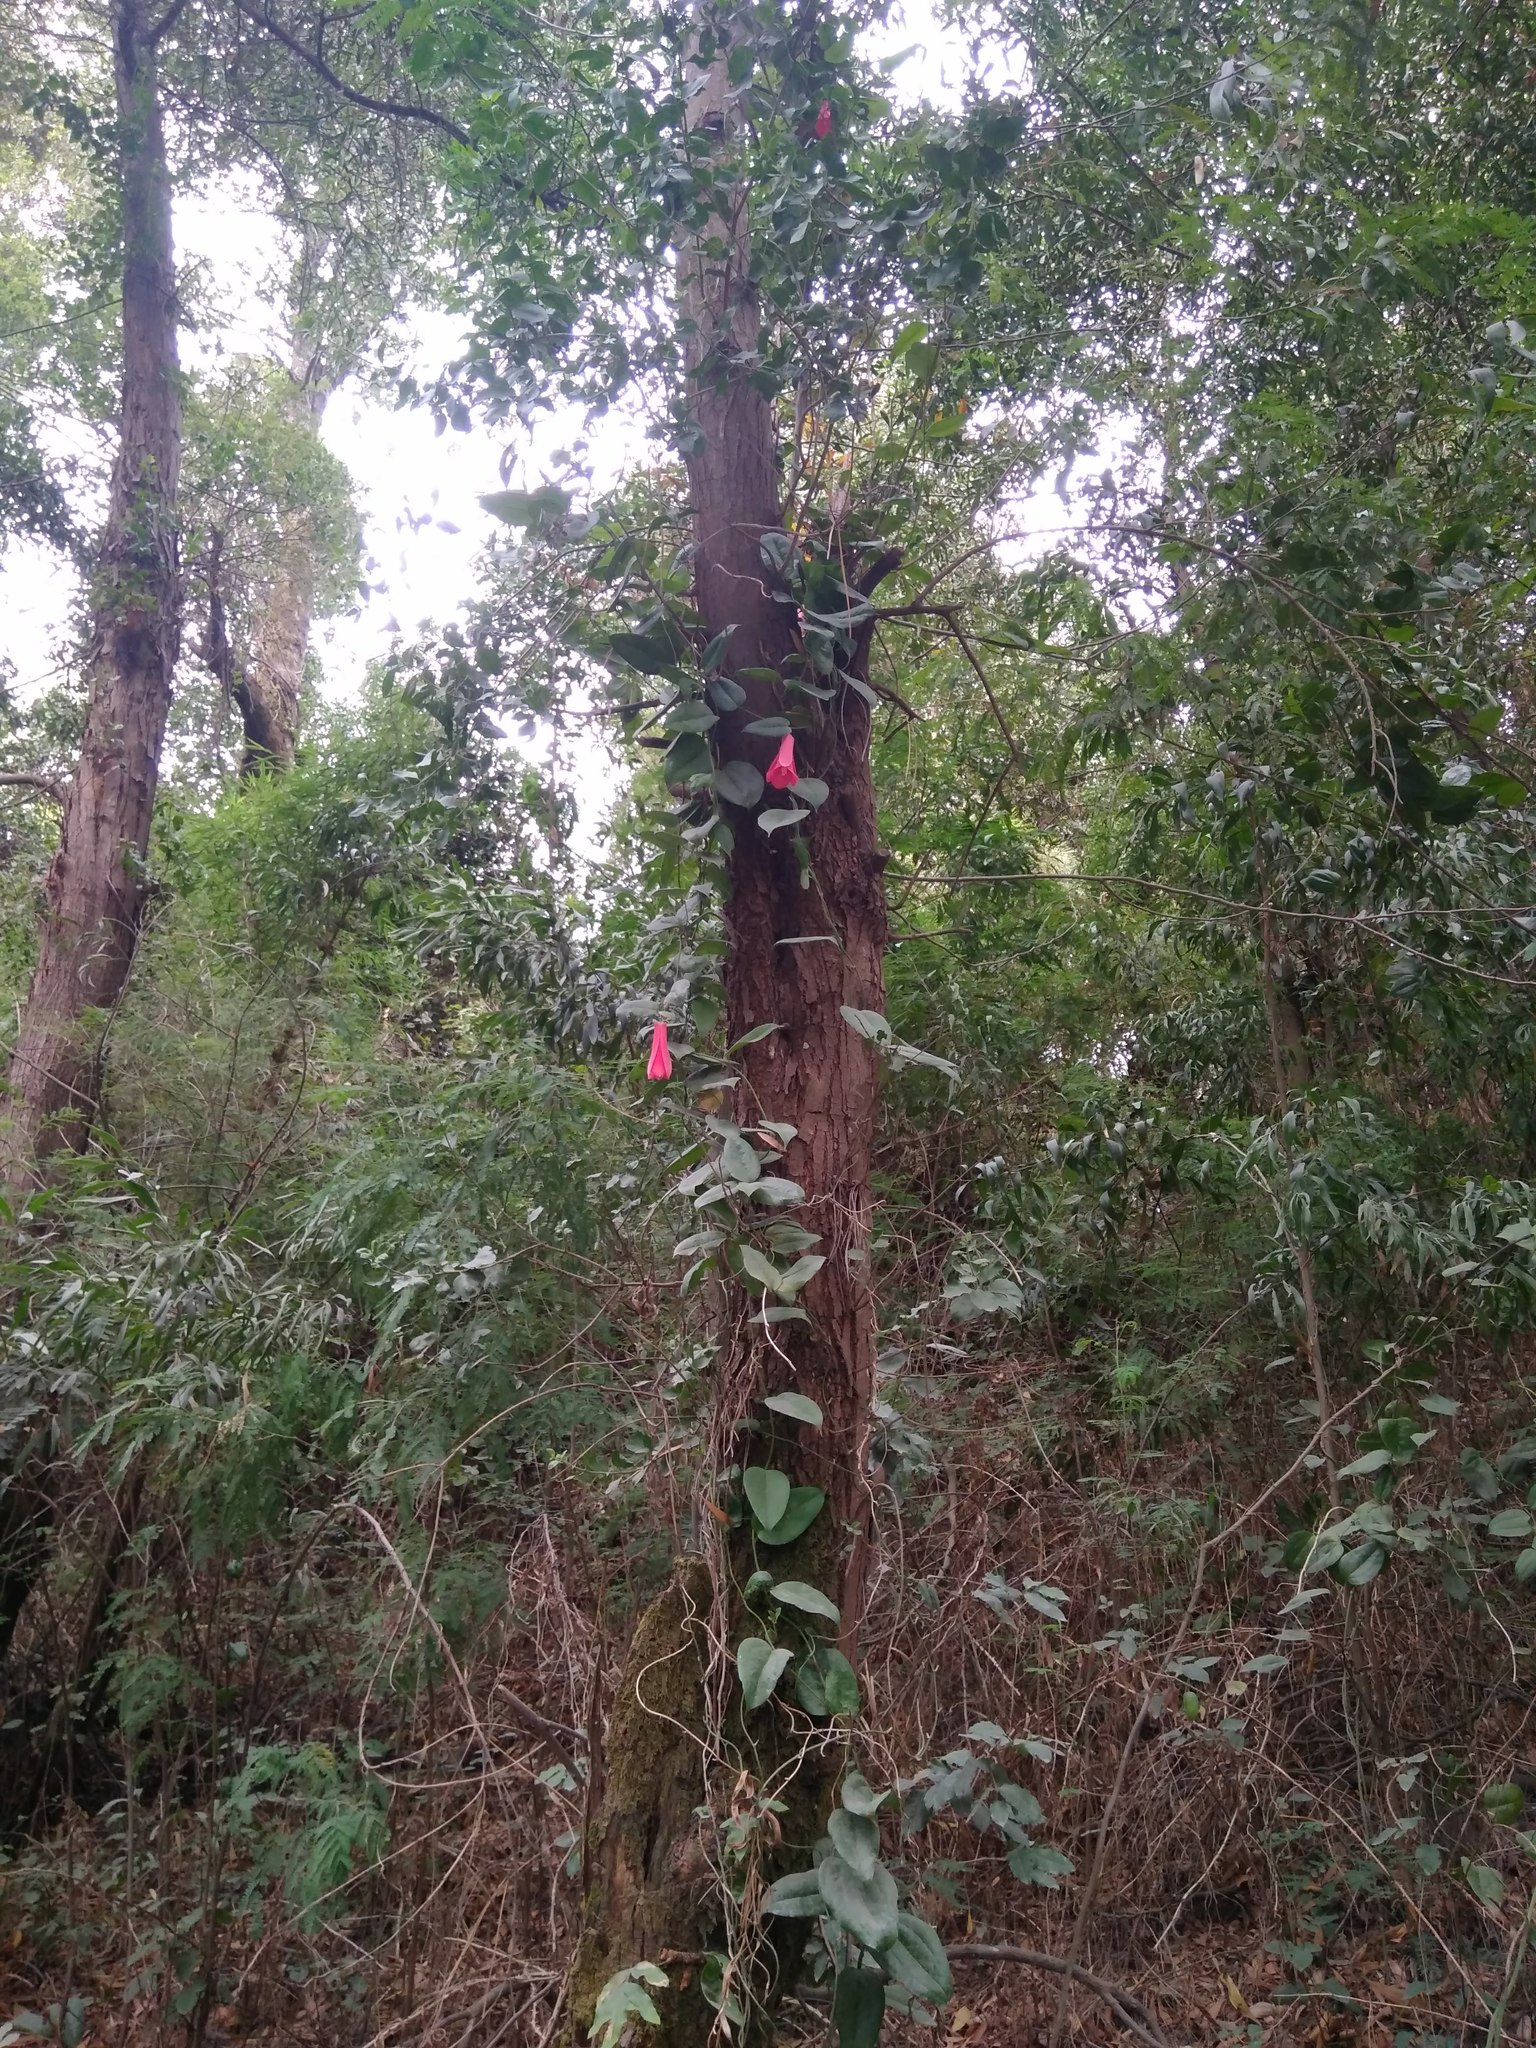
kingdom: Plantae
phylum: Tracheophyta
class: Liliopsida
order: Liliales
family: Philesiaceae
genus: Lapageria
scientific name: Lapageria rosea
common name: Chilean-bellflower
